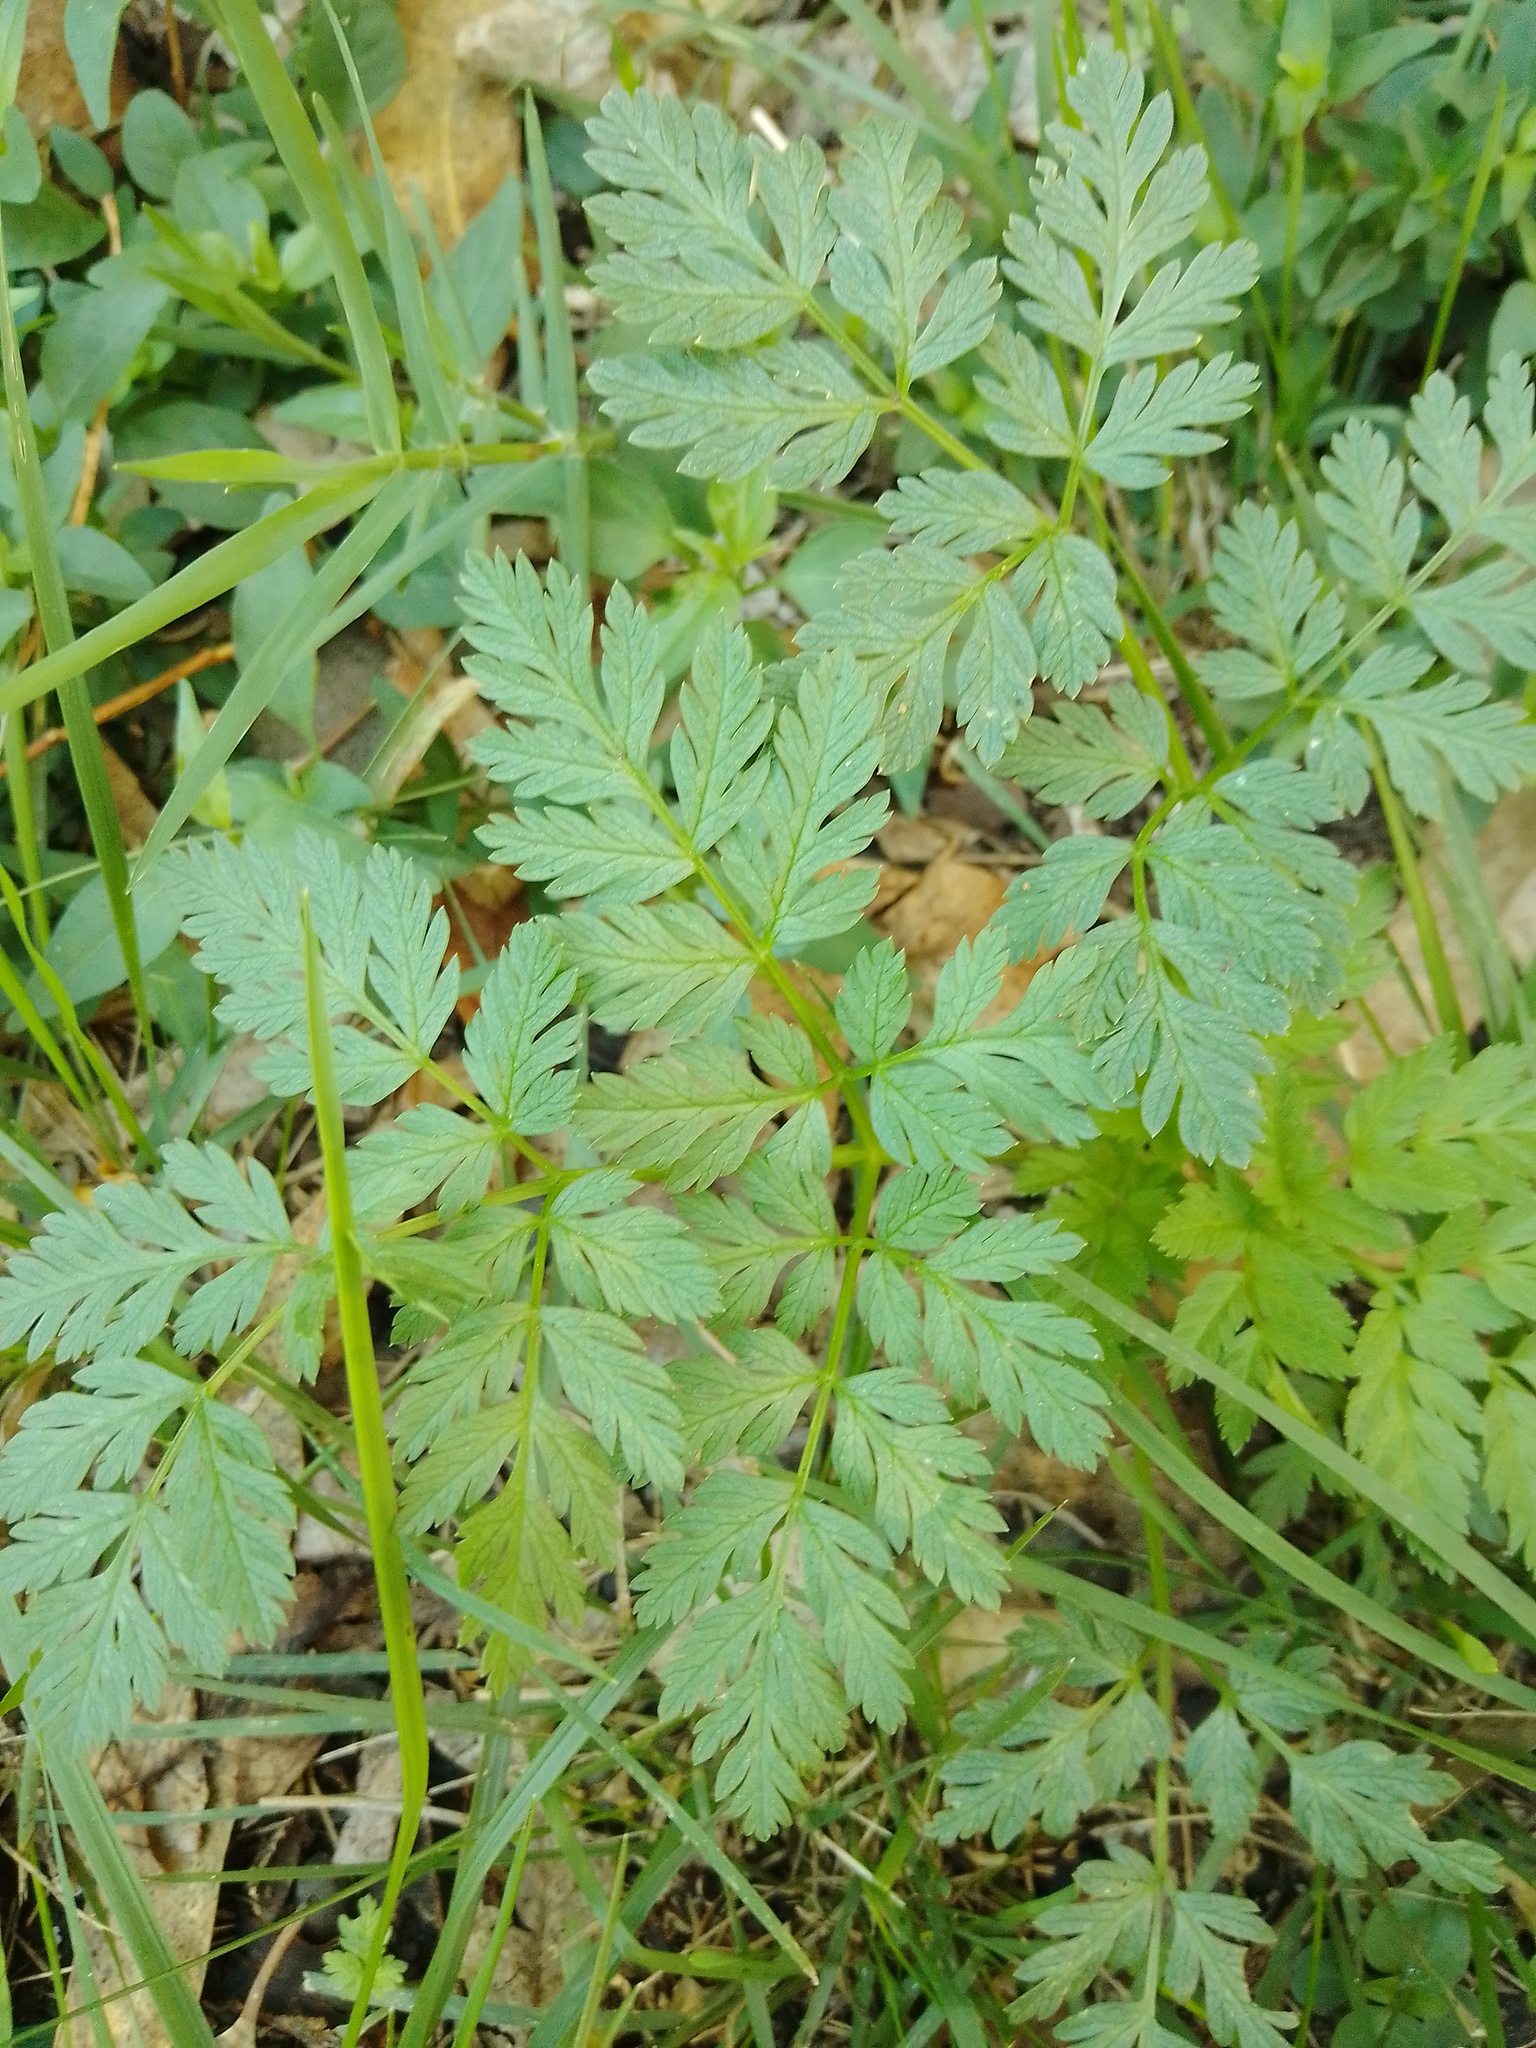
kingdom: Plantae
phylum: Tracheophyta
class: Magnoliopsida
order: Apiales
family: Apiaceae
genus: Conium
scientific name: Conium maculatum
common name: Hemlock
